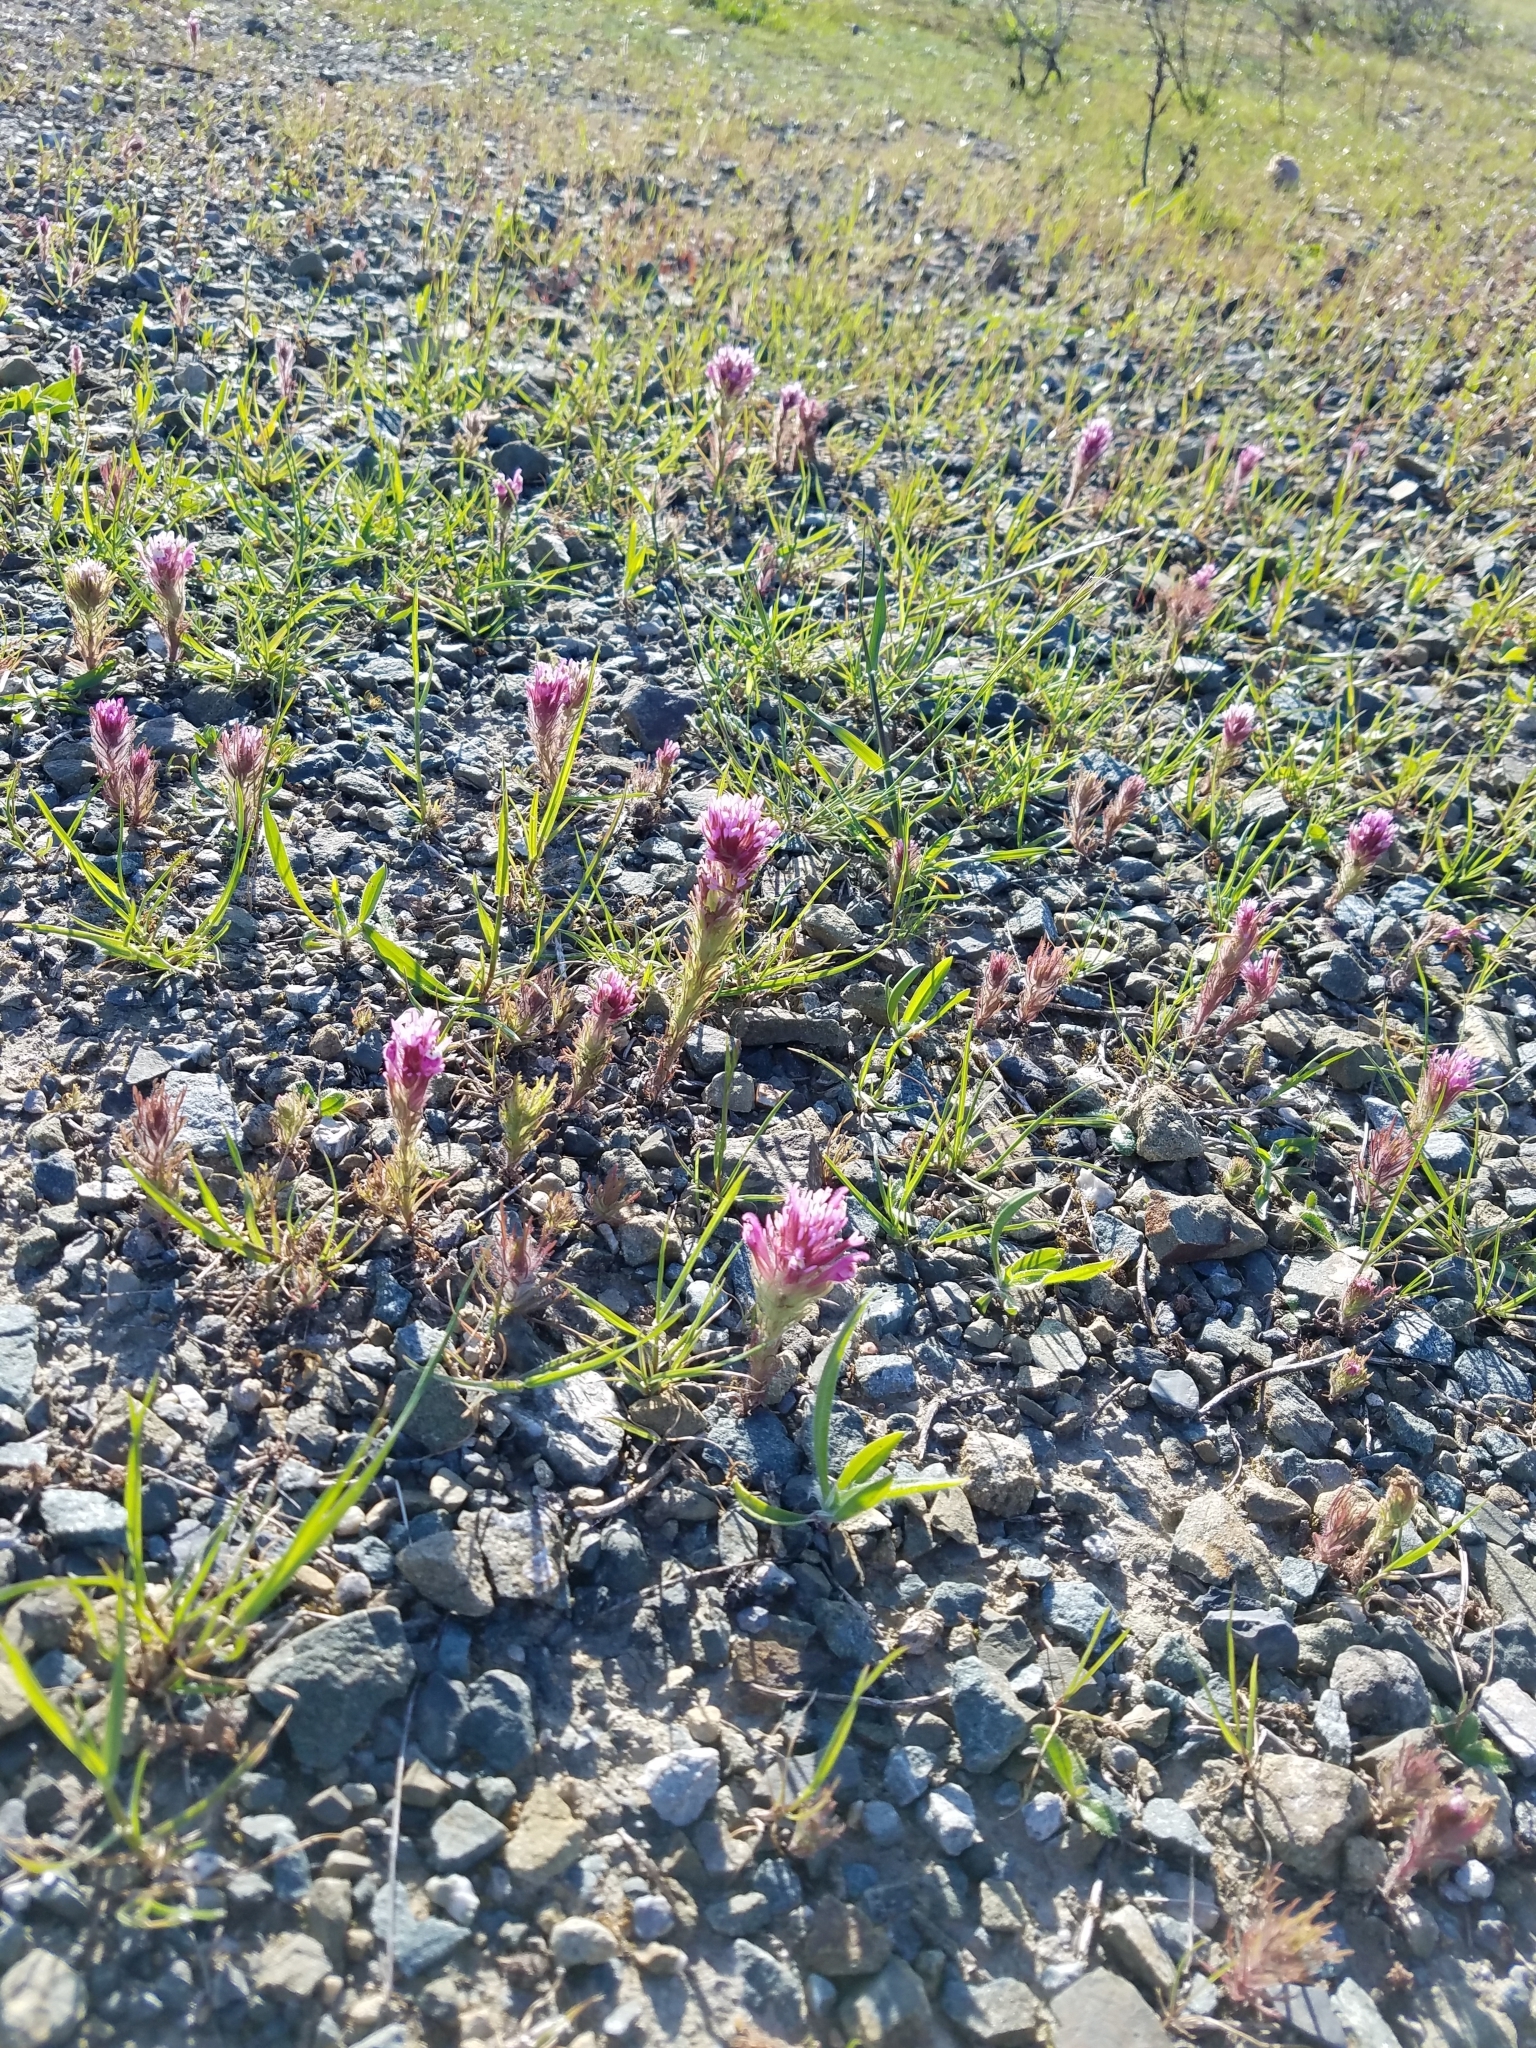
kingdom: Plantae
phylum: Tracheophyta
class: Magnoliopsida
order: Lamiales
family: Orobanchaceae
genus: Castilleja
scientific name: Castilleja exserta
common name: Purple owl-clover
